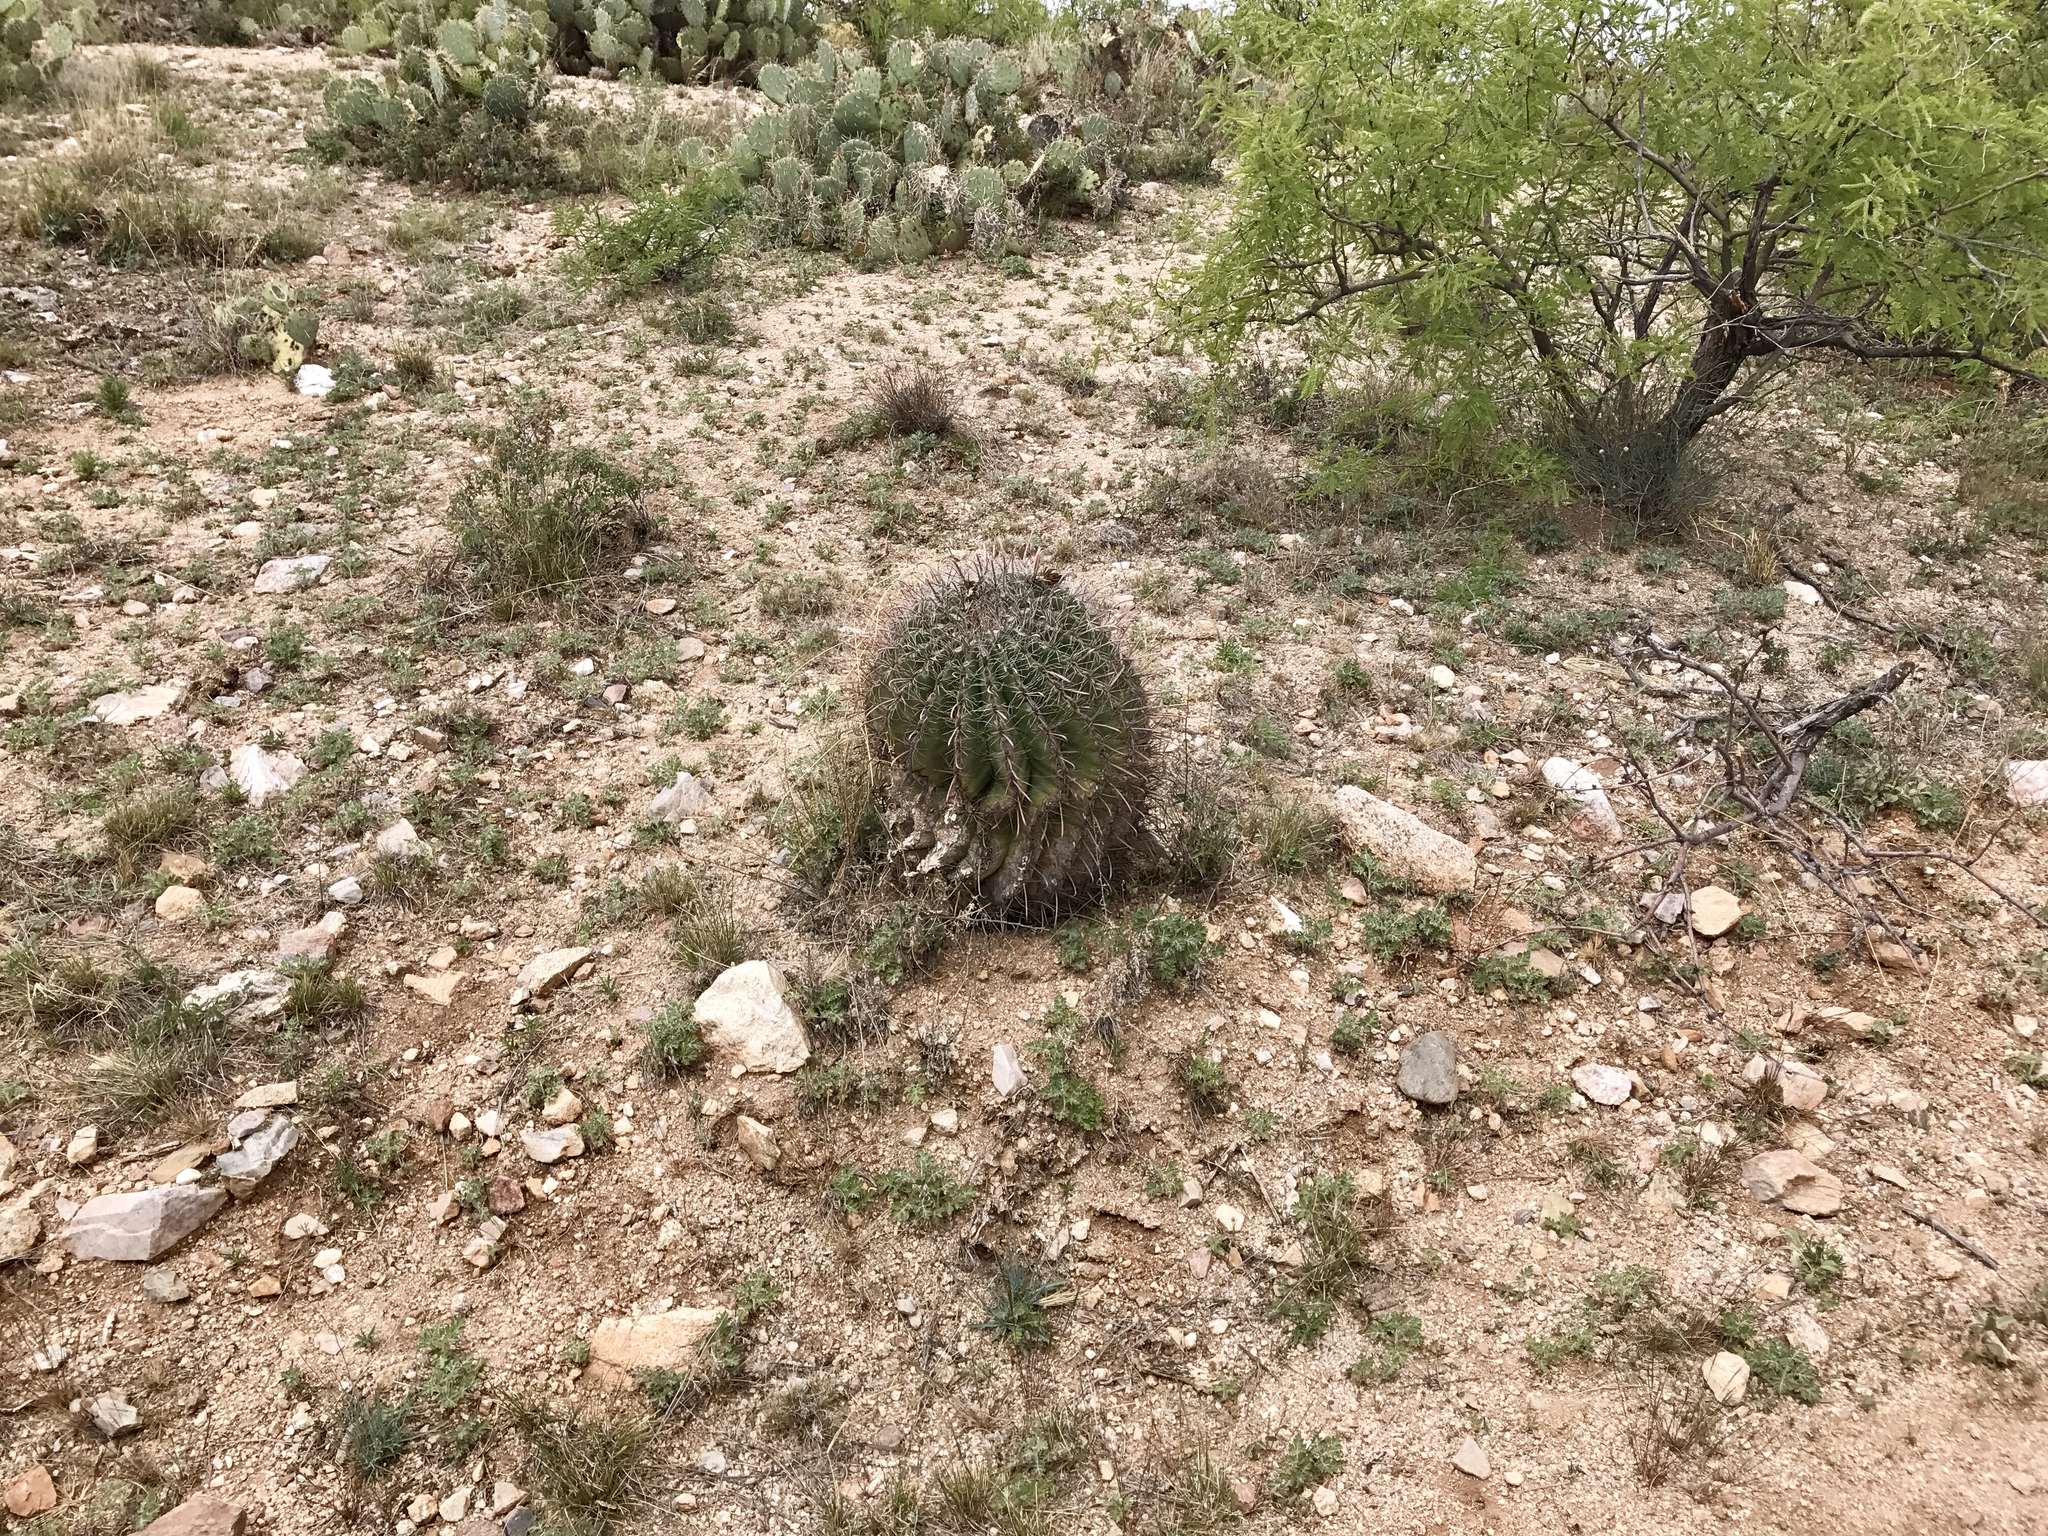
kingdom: Plantae
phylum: Tracheophyta
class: Magnoliopsida
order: Caryophyllales
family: Cactaceae
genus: Ferocactus
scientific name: Ferocactus wislizeni
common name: Candy barrel cactus
